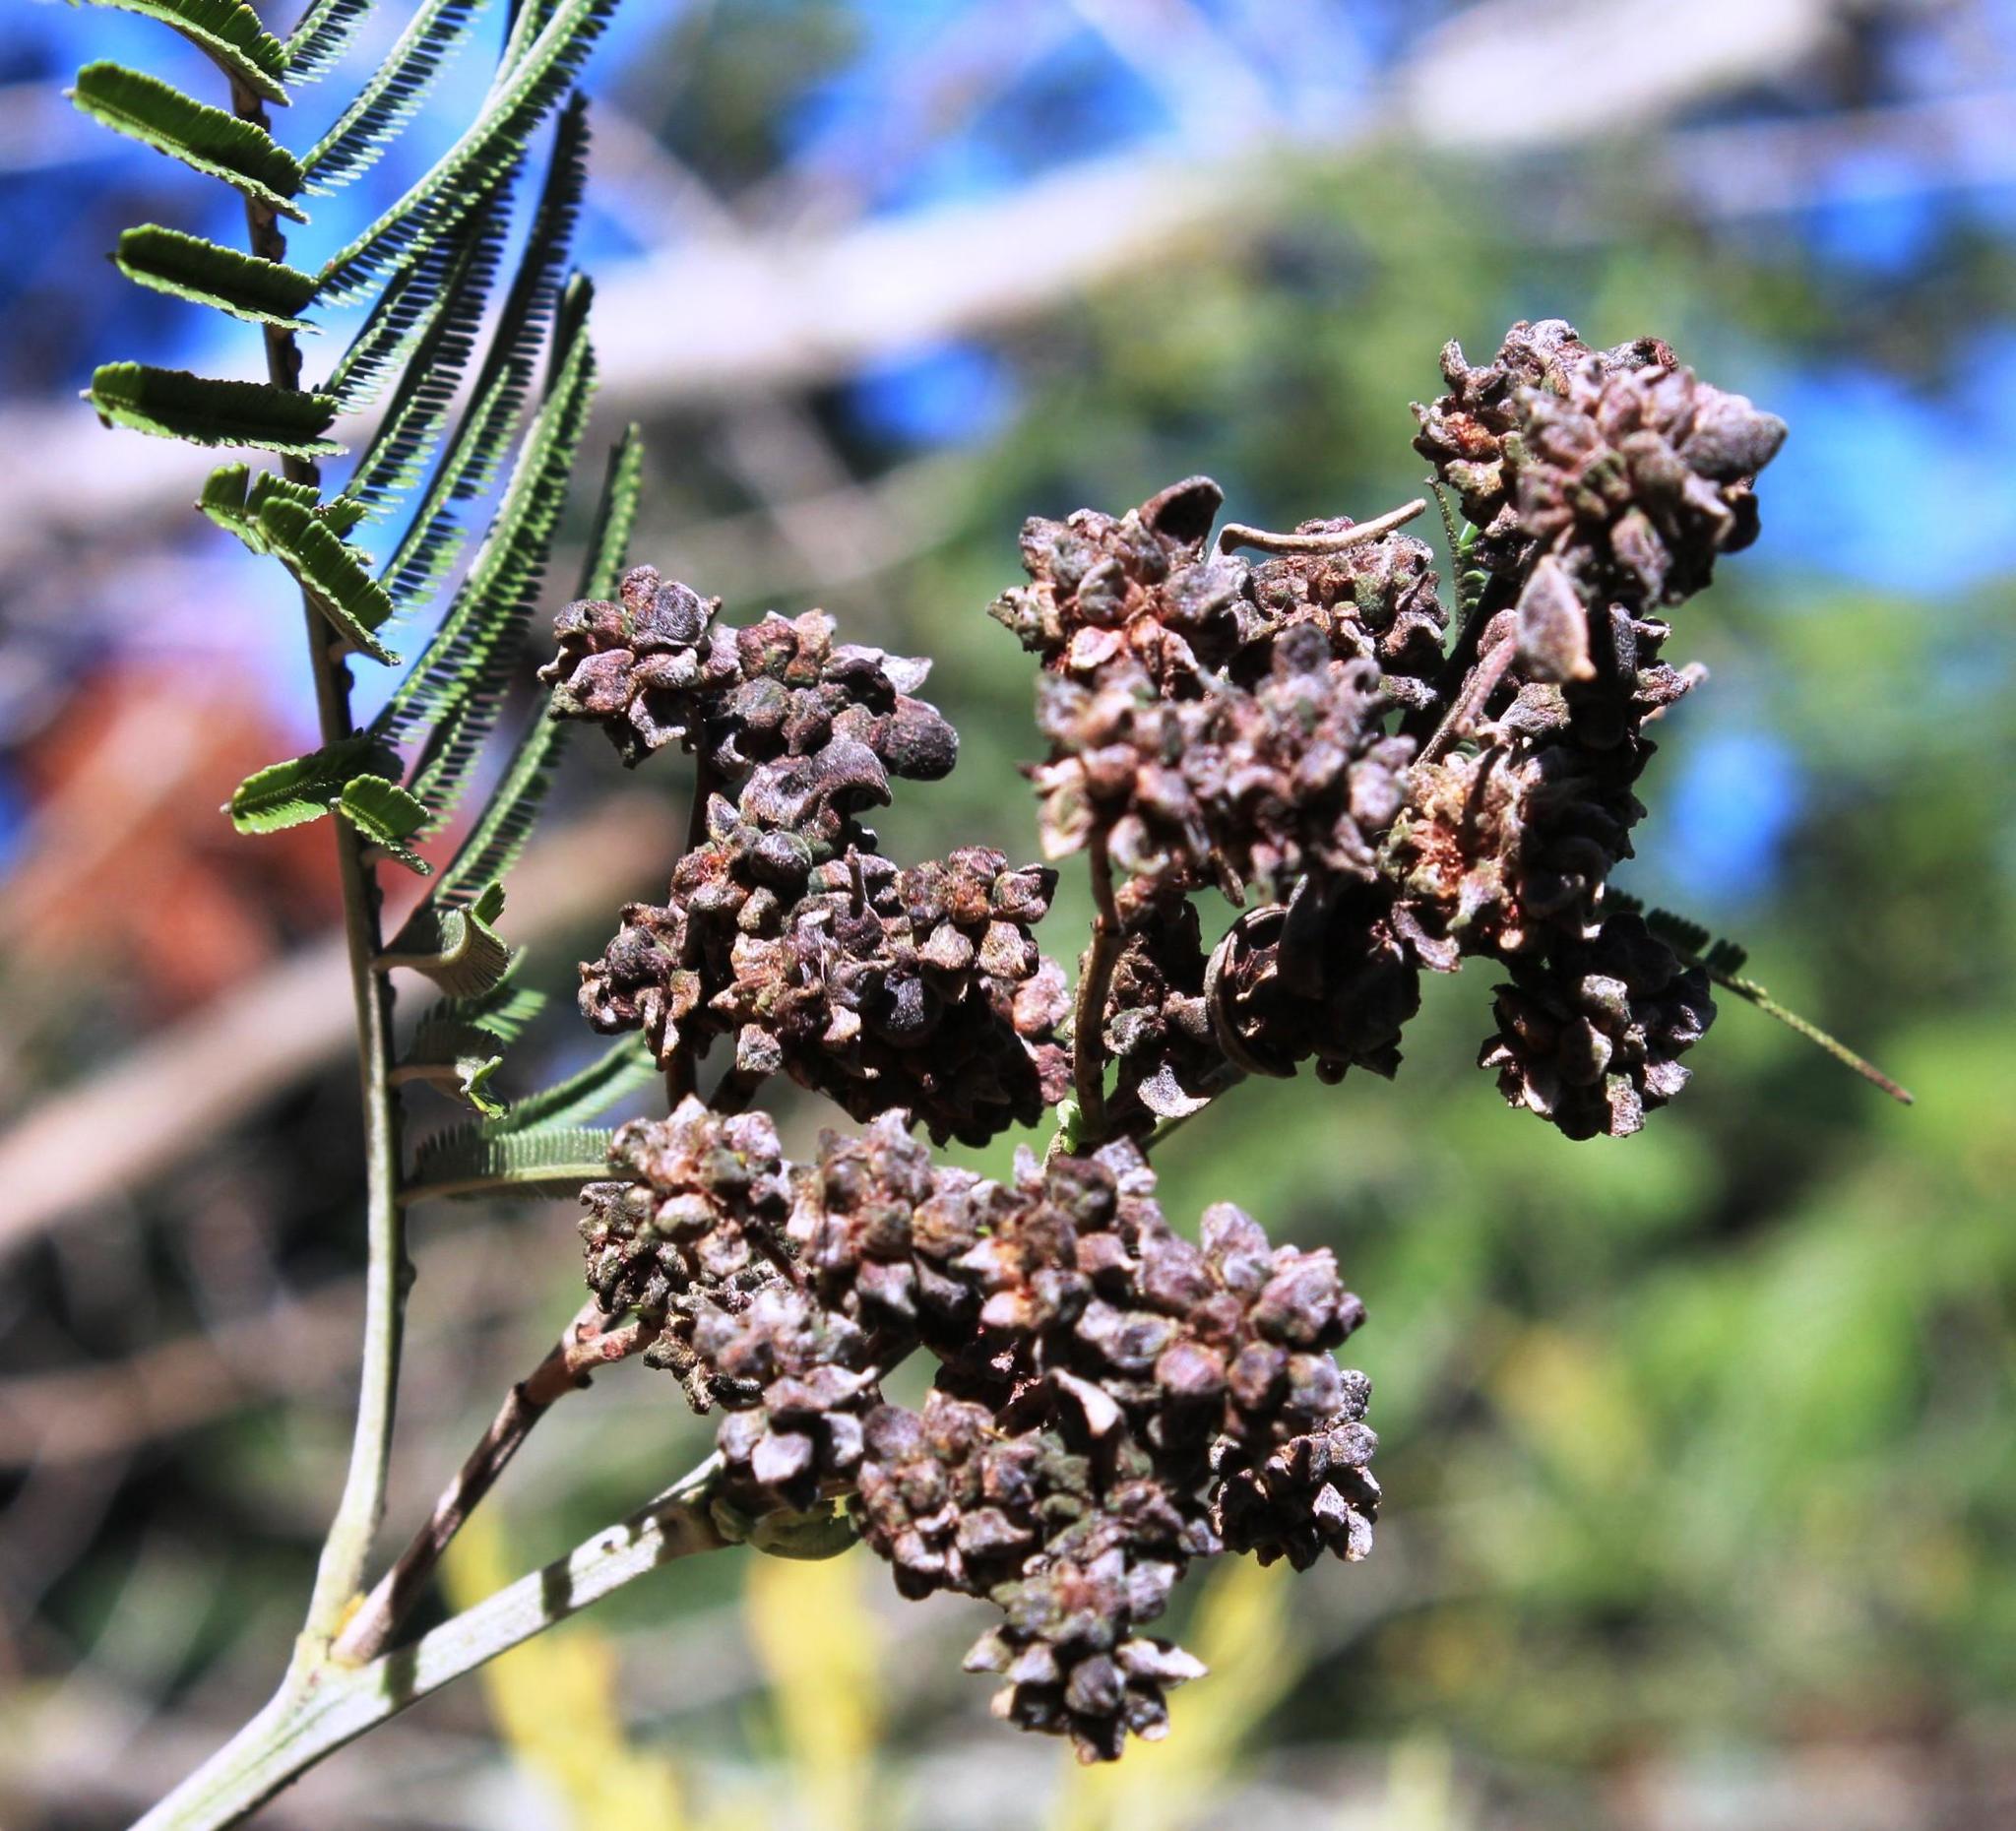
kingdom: Animalia
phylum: Arthropoda
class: Insecta
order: Diptera
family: Cecidomyiidae
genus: Dasineura
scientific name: Dasineura rubiformis
